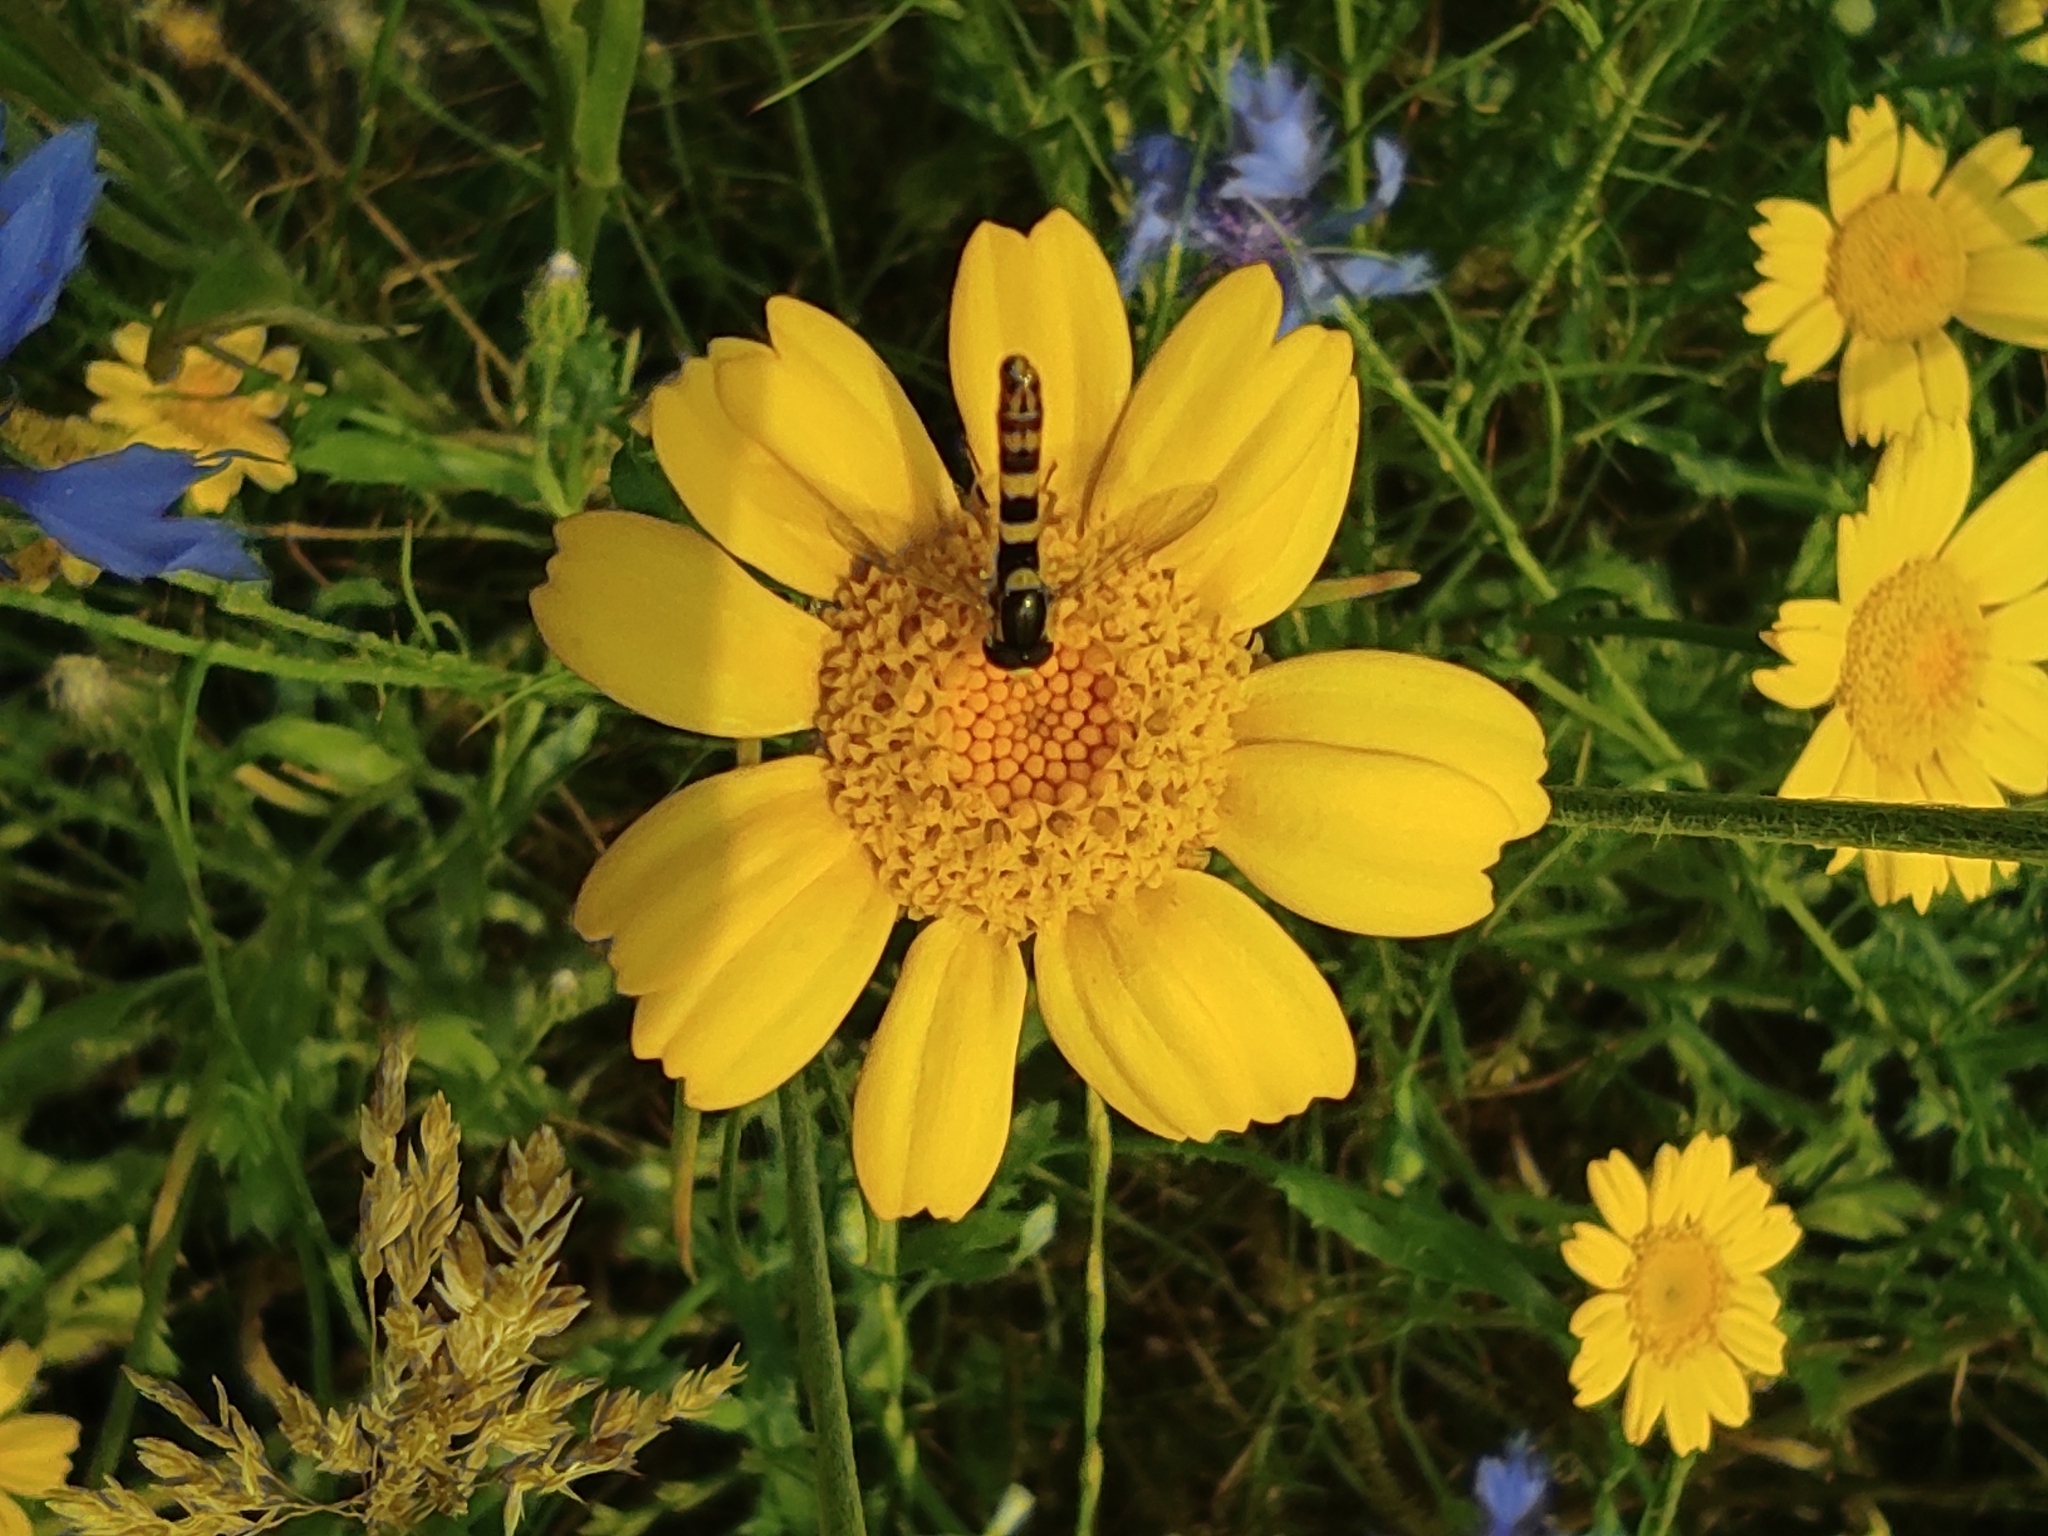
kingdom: Animalia
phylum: Arthropoda
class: Insecta
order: Diptera
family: Syrphidae
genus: Sphaerophoria
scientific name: Sphaerophoria scripta
